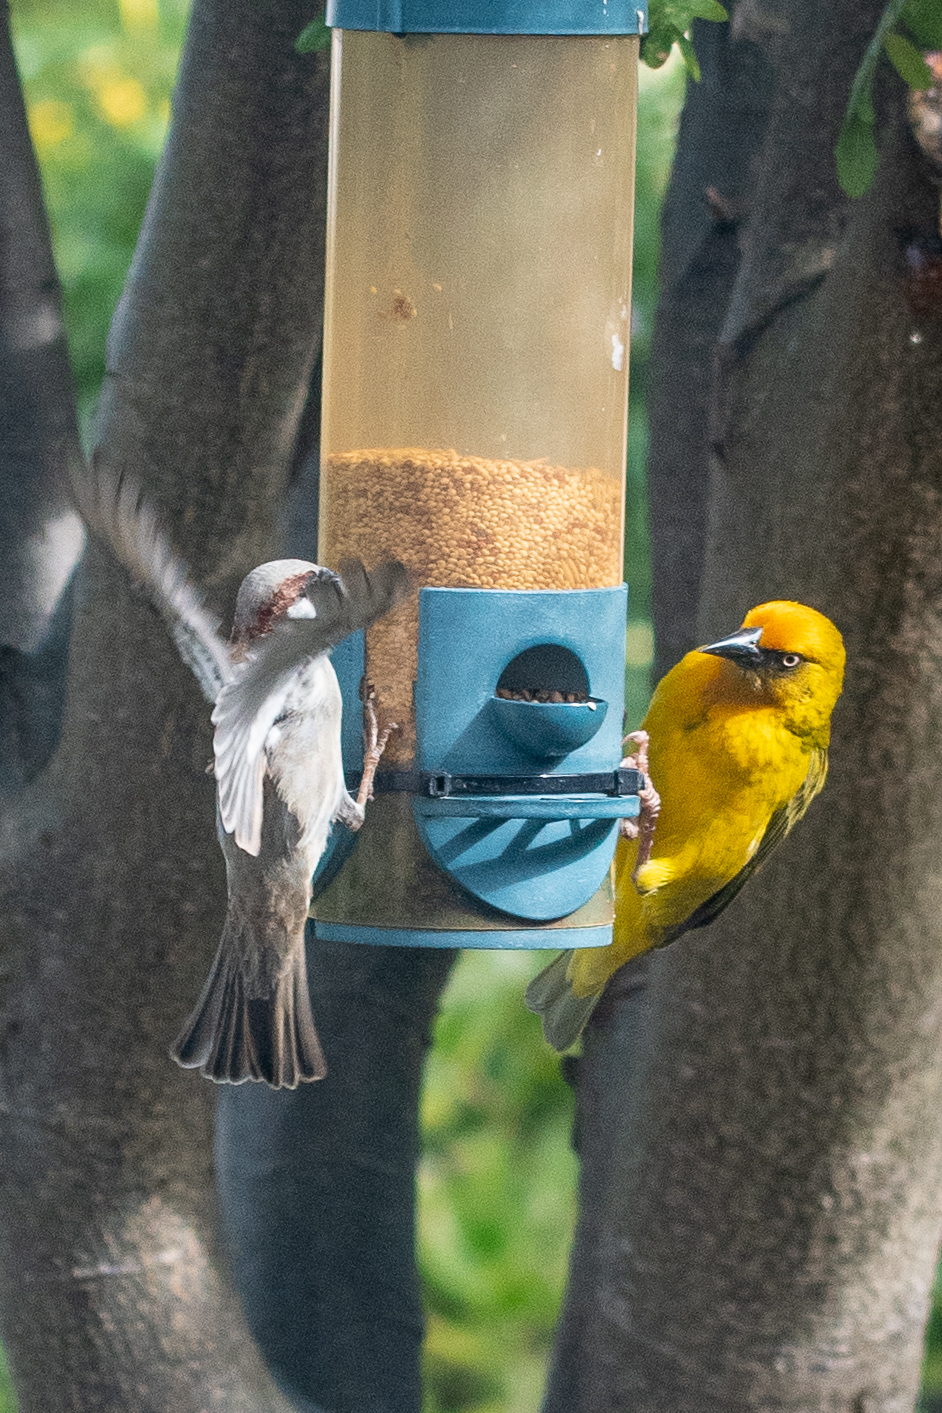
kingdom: Animalia
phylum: Chordata
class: Aves
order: Passeriformes
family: Passeridae
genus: Passer
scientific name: Passer domesticus
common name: House sparrow
